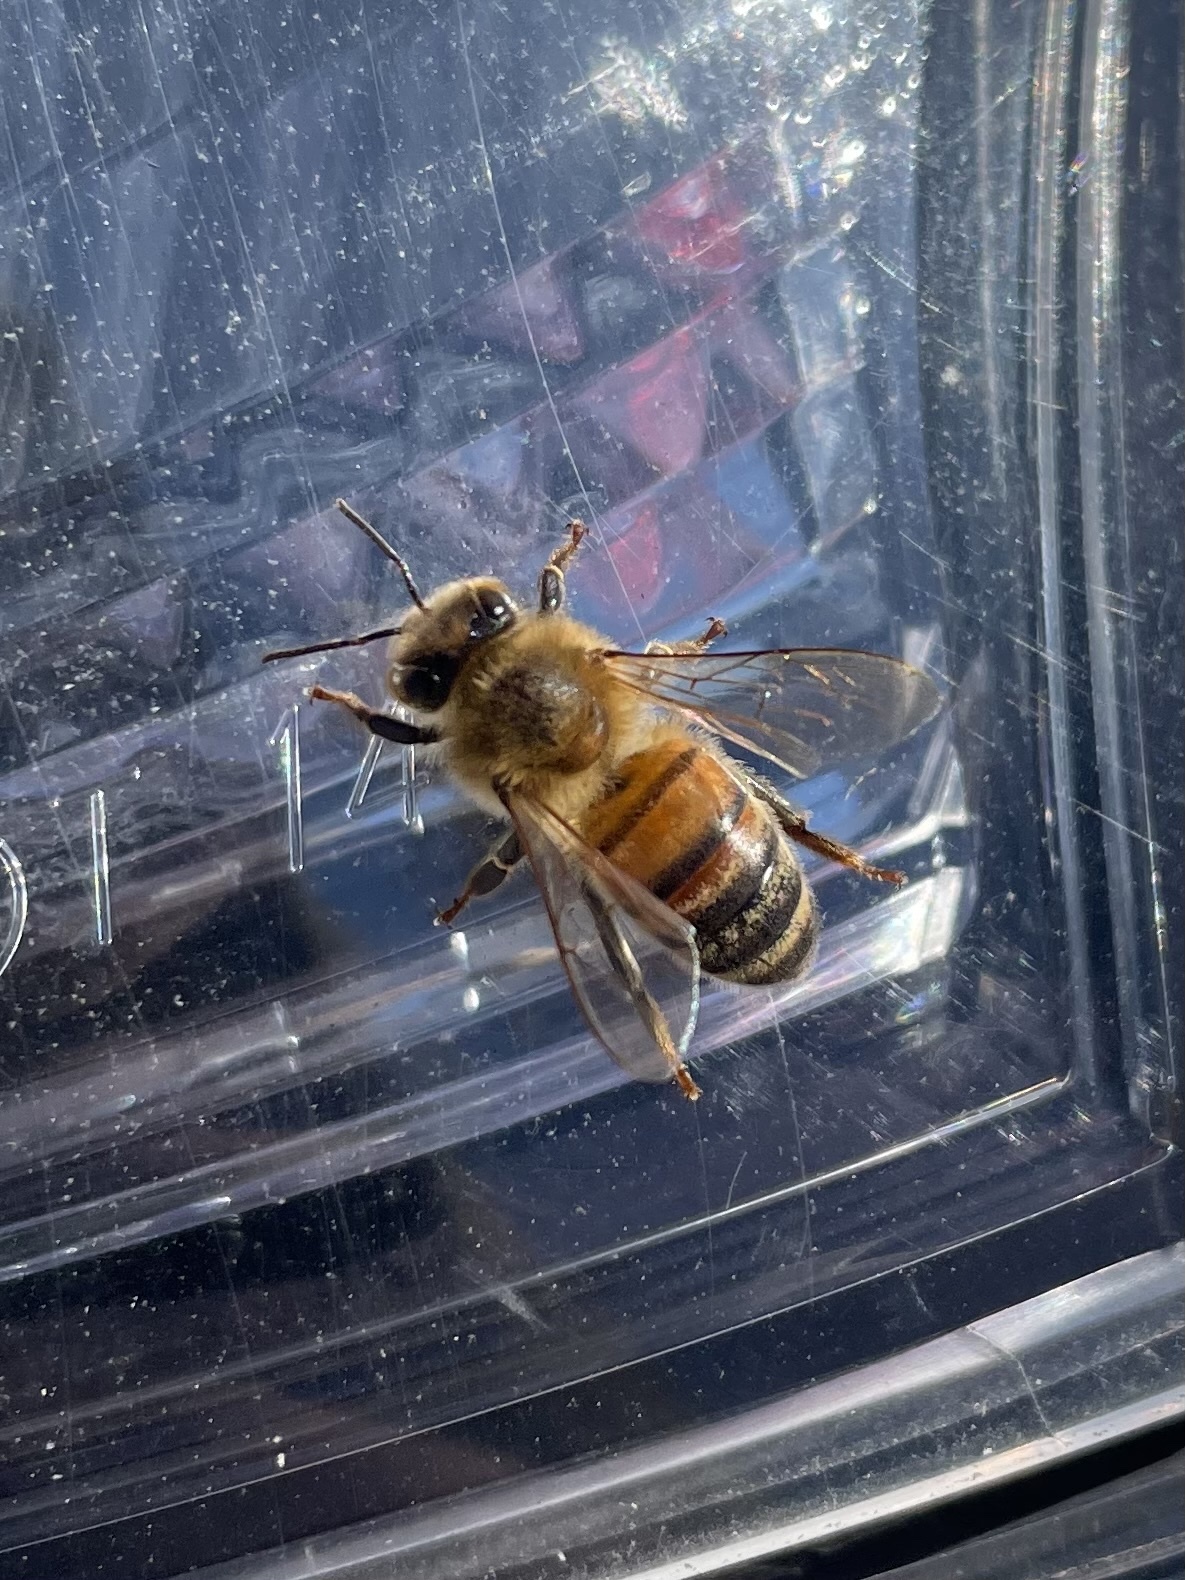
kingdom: Animalia
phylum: Arthropoda
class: Insecta
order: Hymenoptera
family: Apidae
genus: Apis
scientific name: Apis mellifera
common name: Honey bee
